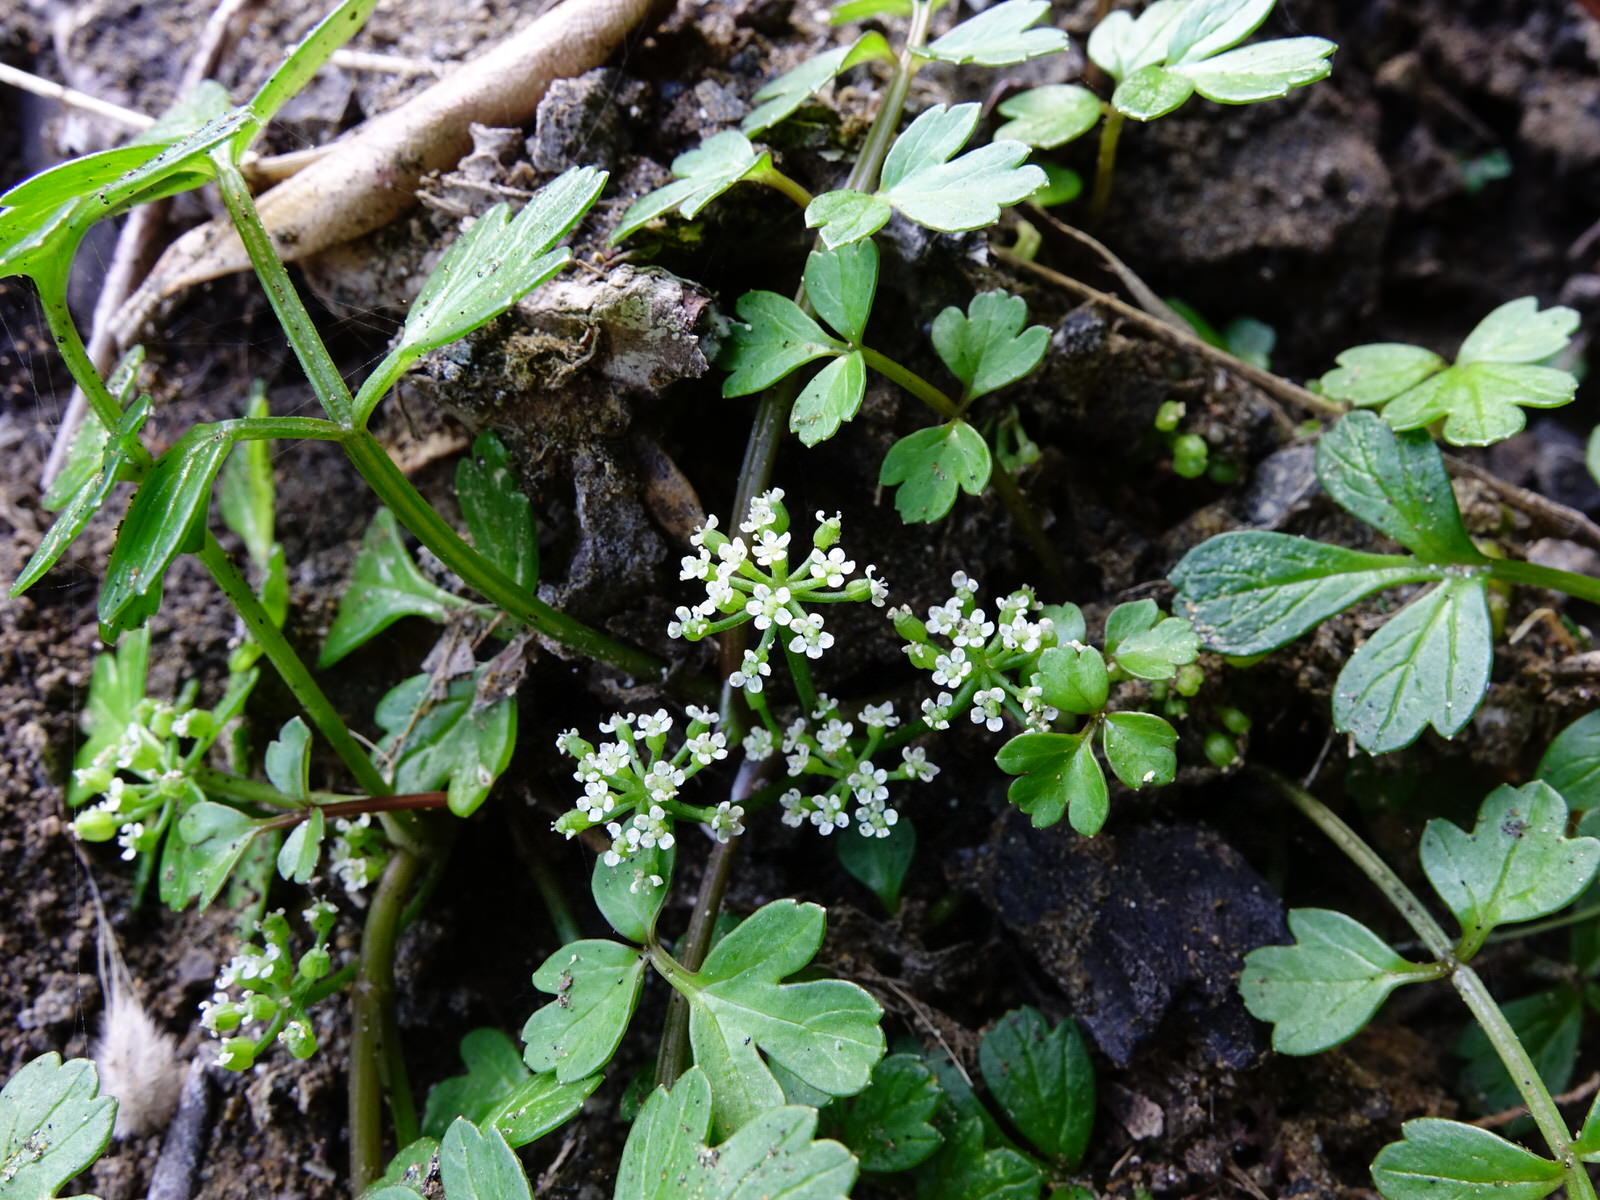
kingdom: Plantae
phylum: Tracheophyta
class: Magnoliopsida
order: Apiales
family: Apiaceae
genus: Apium
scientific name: Apium prostratum
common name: Prostrate marshwort
